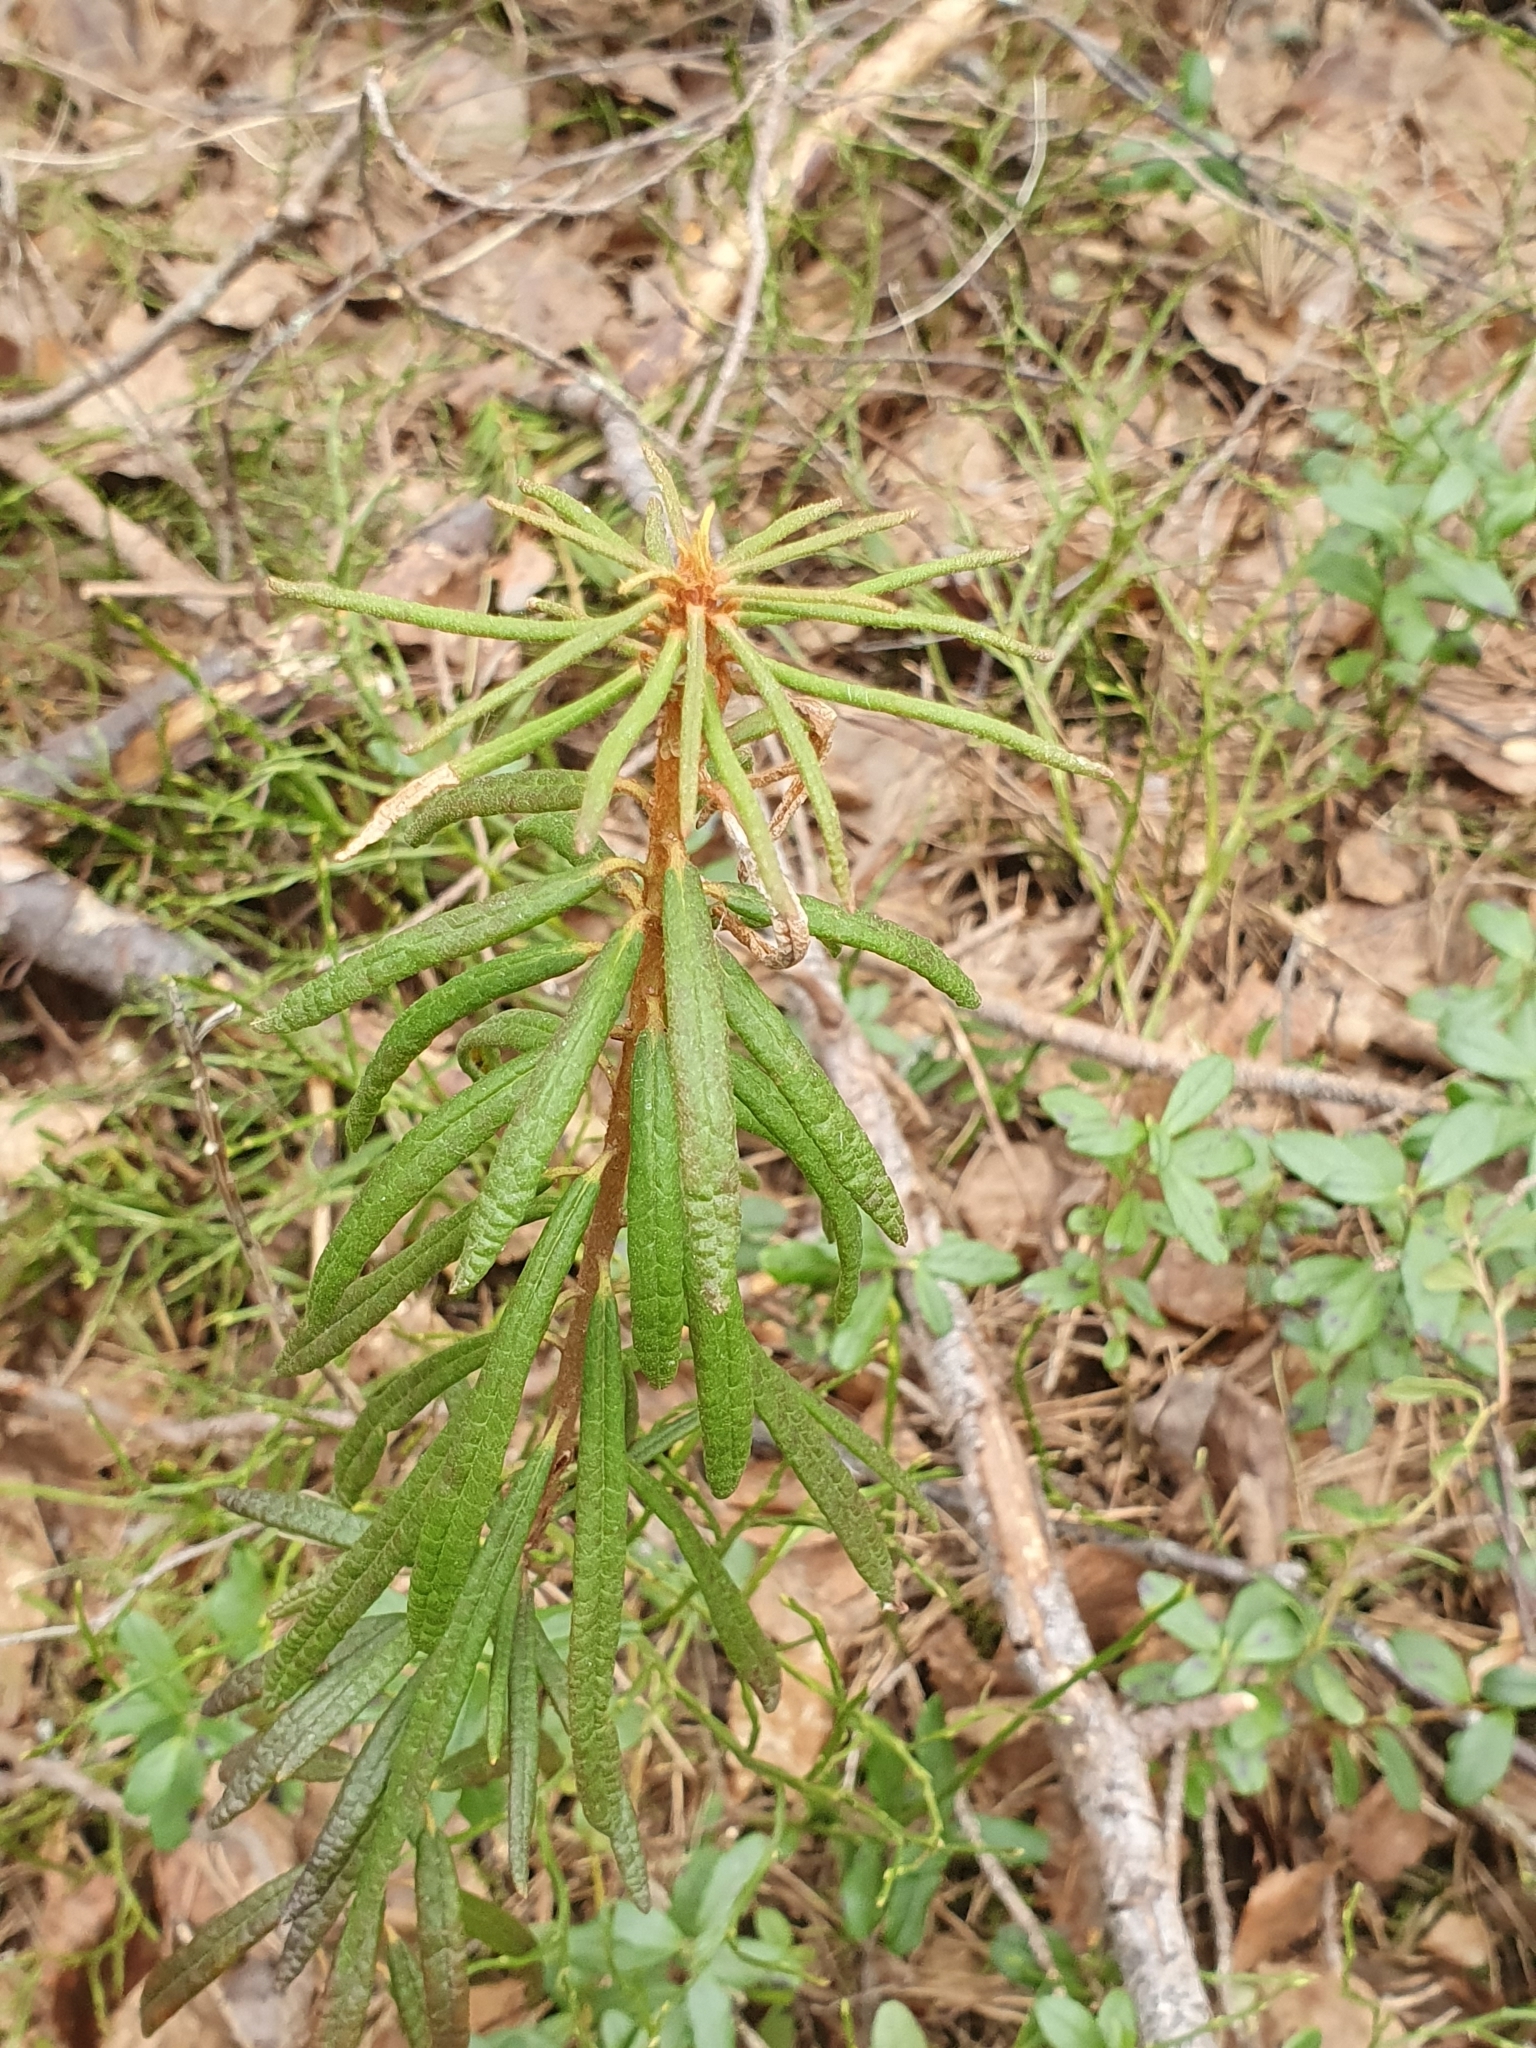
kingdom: Plantae
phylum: Tracheophyta
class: Magnoliopsida
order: Ericales
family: Ericaceae
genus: Rhododendron
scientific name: Rhododendron tomentosum
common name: Marsh labrador tea
